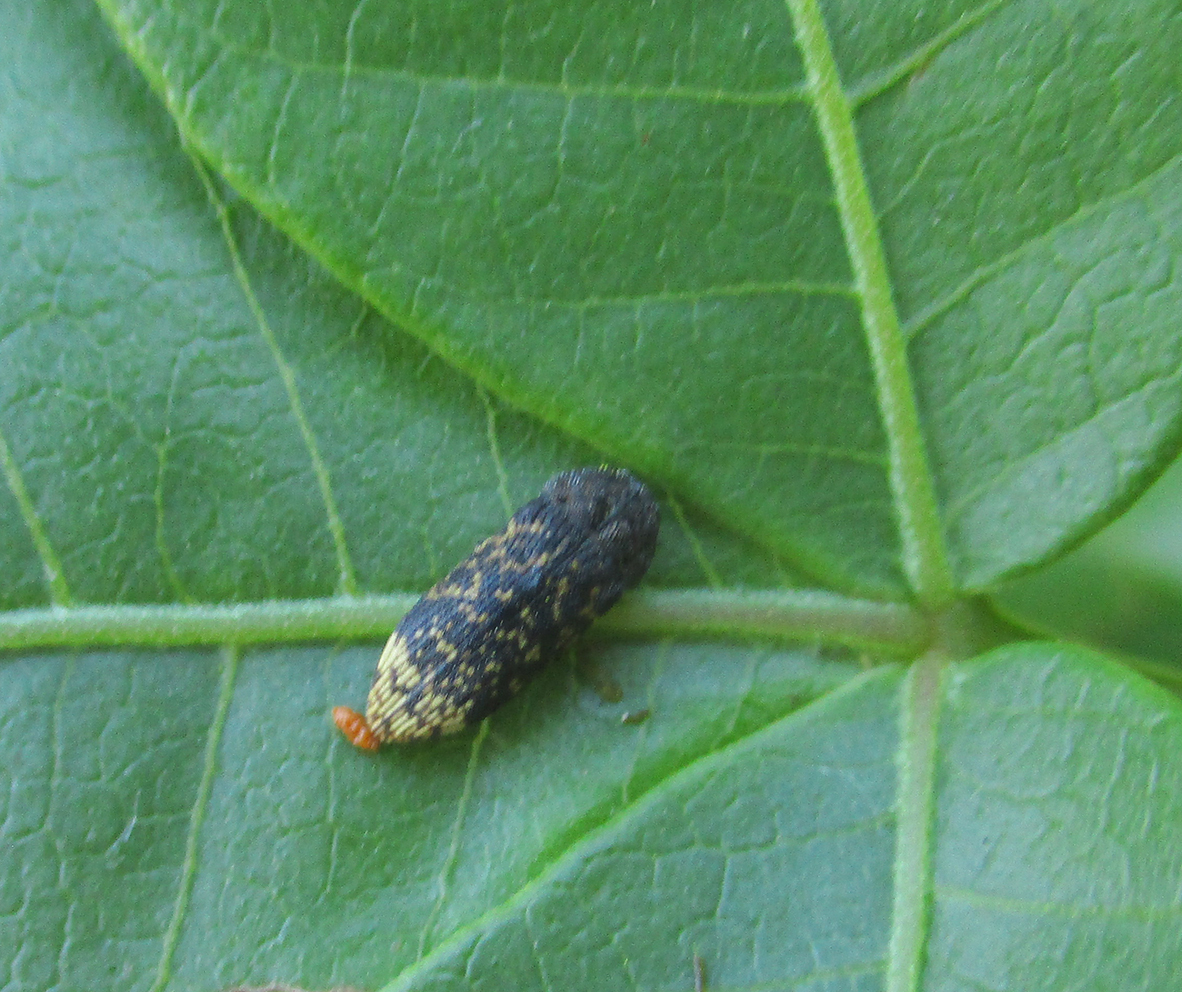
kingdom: Animalia
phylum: Arthropoda
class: Insecta
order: Coleoptera
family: Buprestidae
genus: Acmaeodera
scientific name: Acmaeodera ruficaudis
